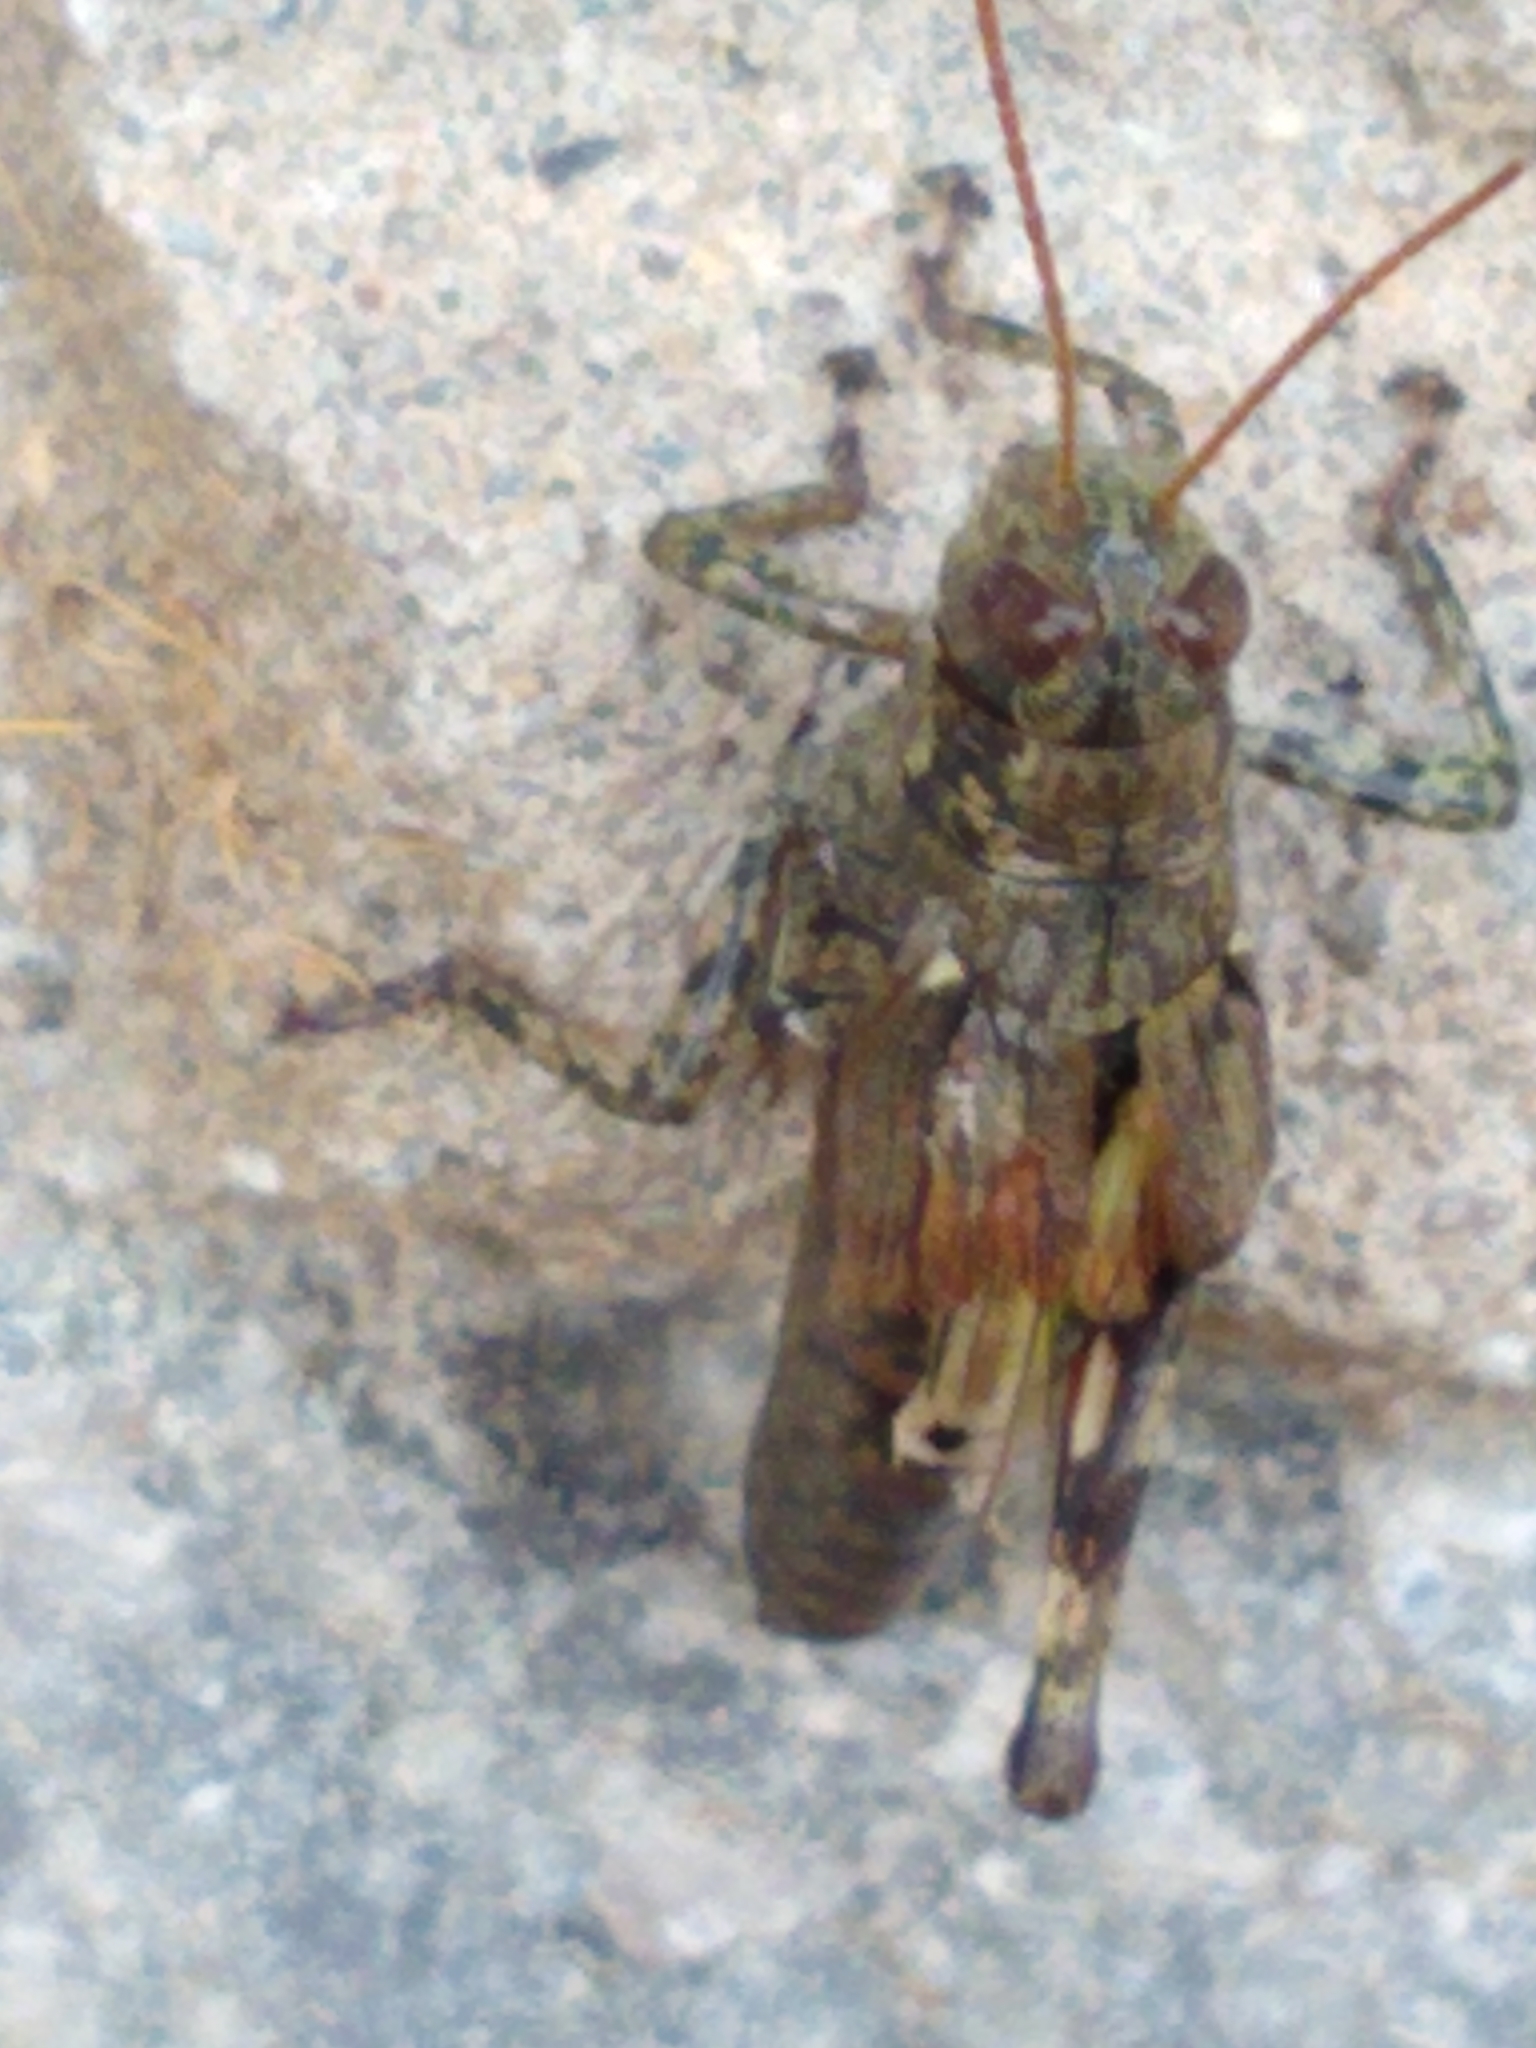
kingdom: Animalia
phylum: Arthropoda
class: Insecta
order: Orthoptera
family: Acrididae
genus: Melanoplus
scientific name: Melanoplus punctulatus
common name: Pine-tree spur-throat grasshopper
